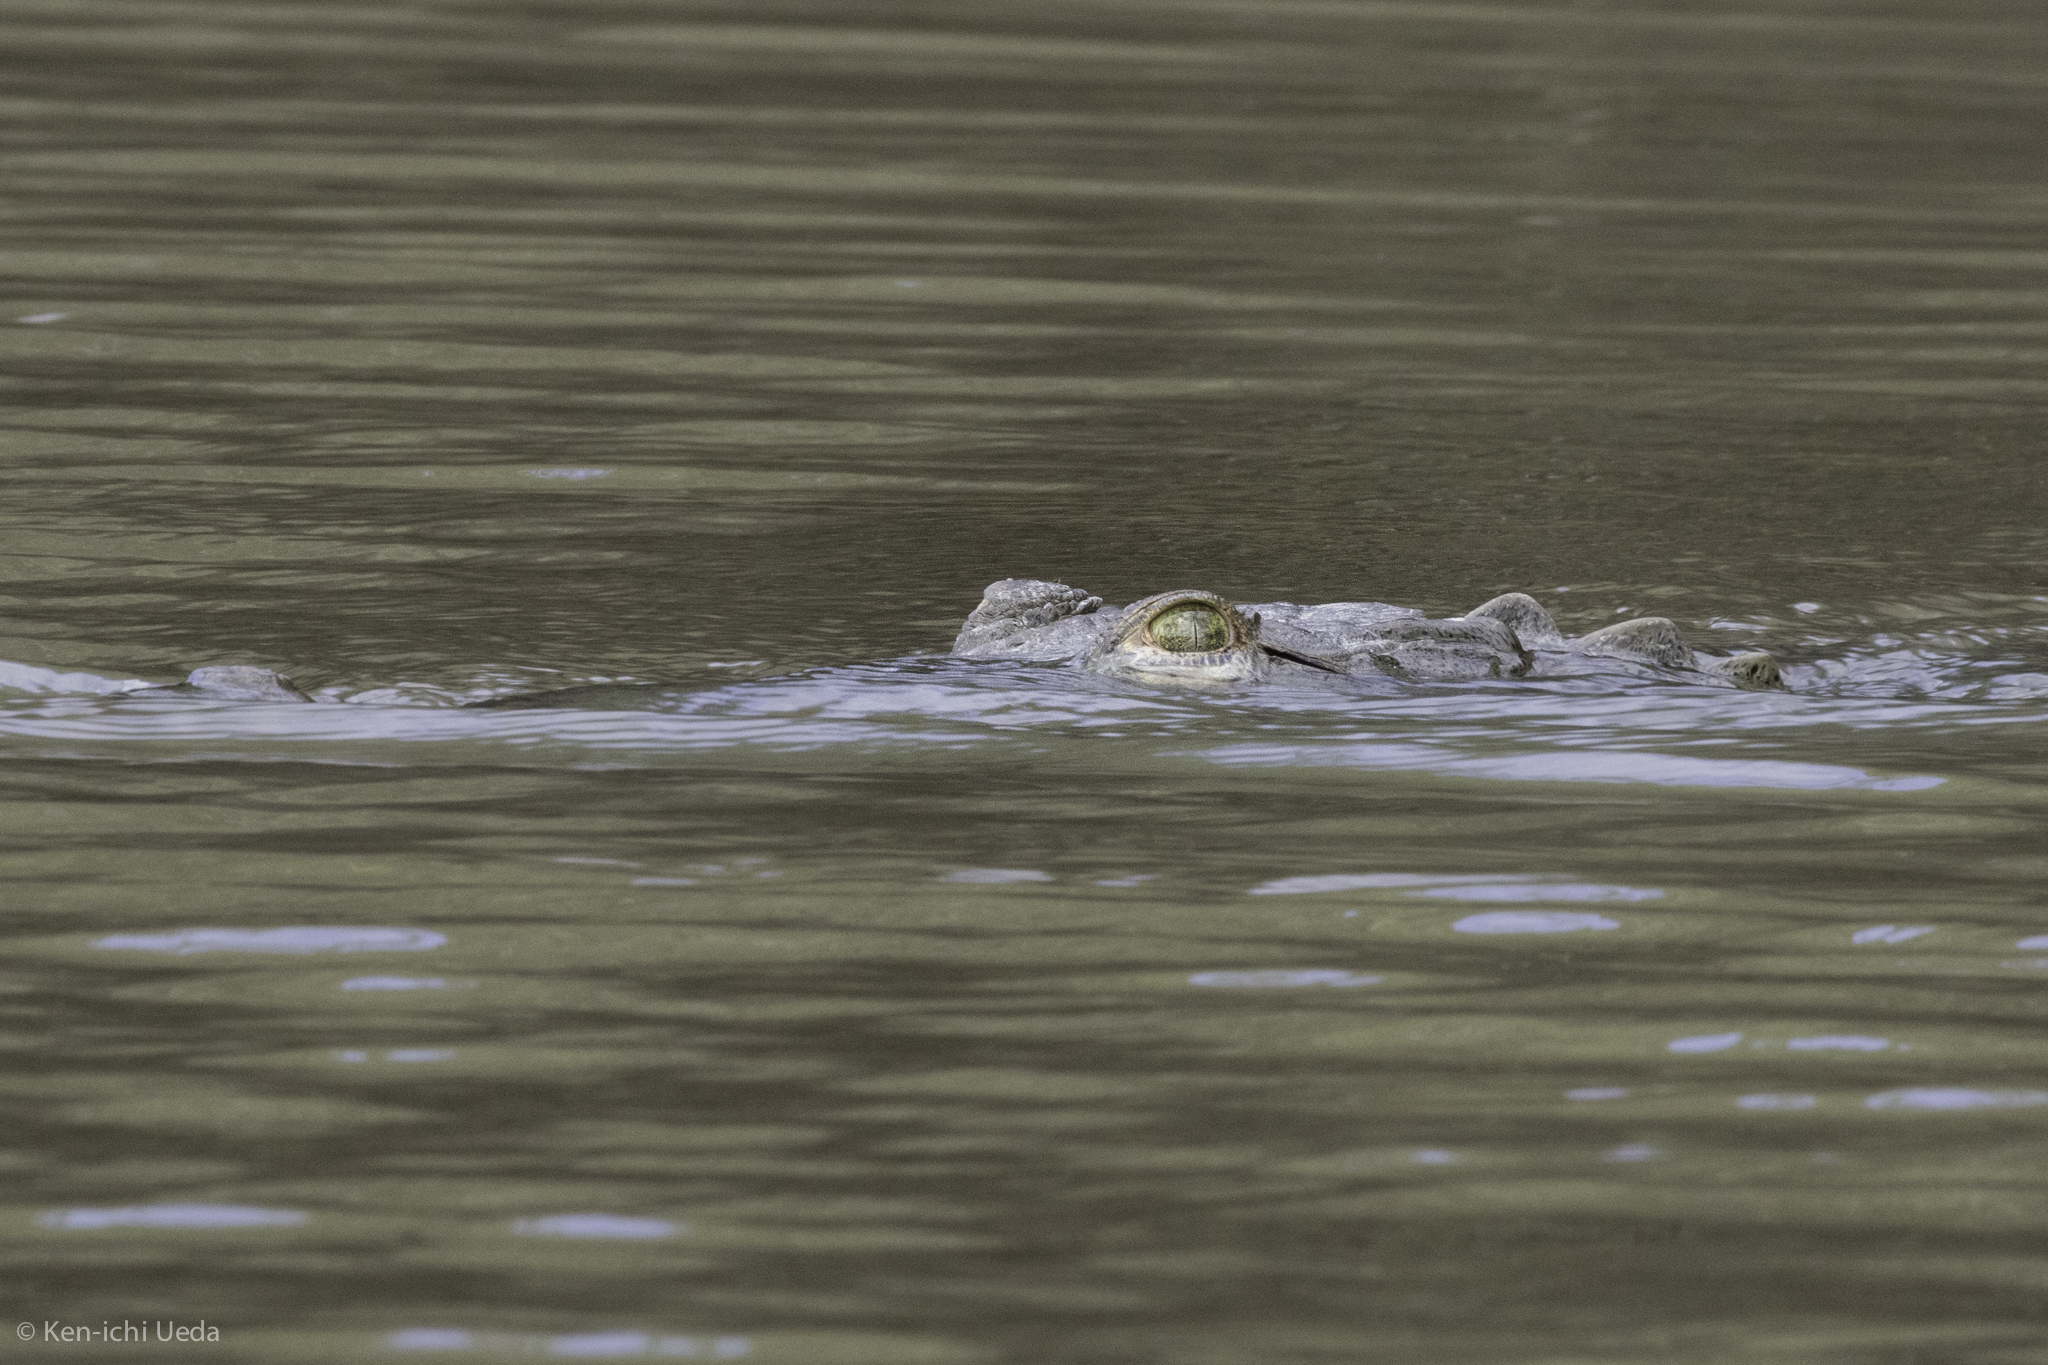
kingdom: Animalia
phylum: Chordata
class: Crocodylia
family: Crocodylidae
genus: Crocodylus
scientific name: Crocodylus acutus
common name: American crocodile
